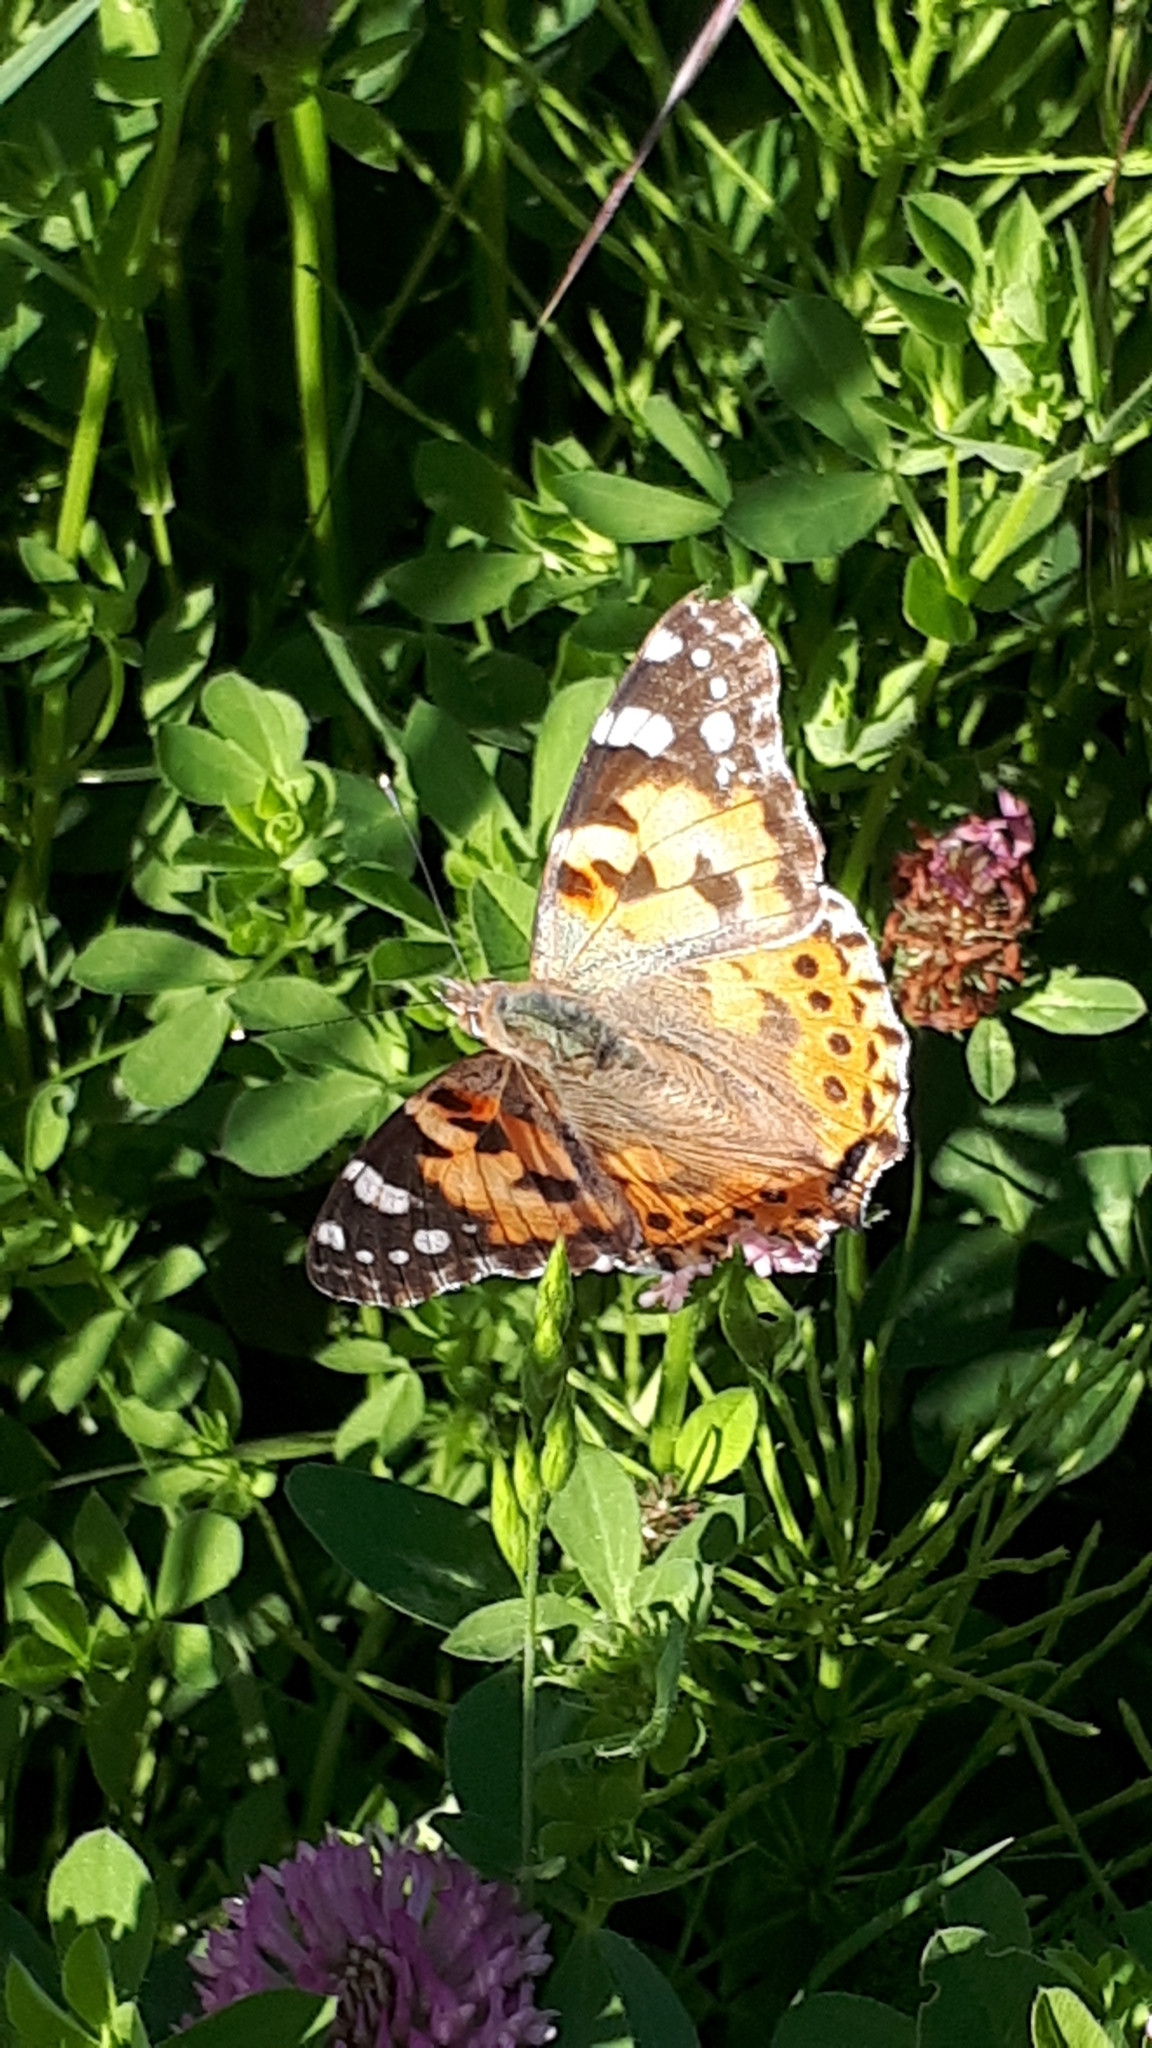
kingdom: Animalia
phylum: Arthropoda
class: Insecta
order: Lepidoptera
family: Nymphalidae
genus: Vanessa
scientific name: Vanessa cardui
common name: Painted lady
